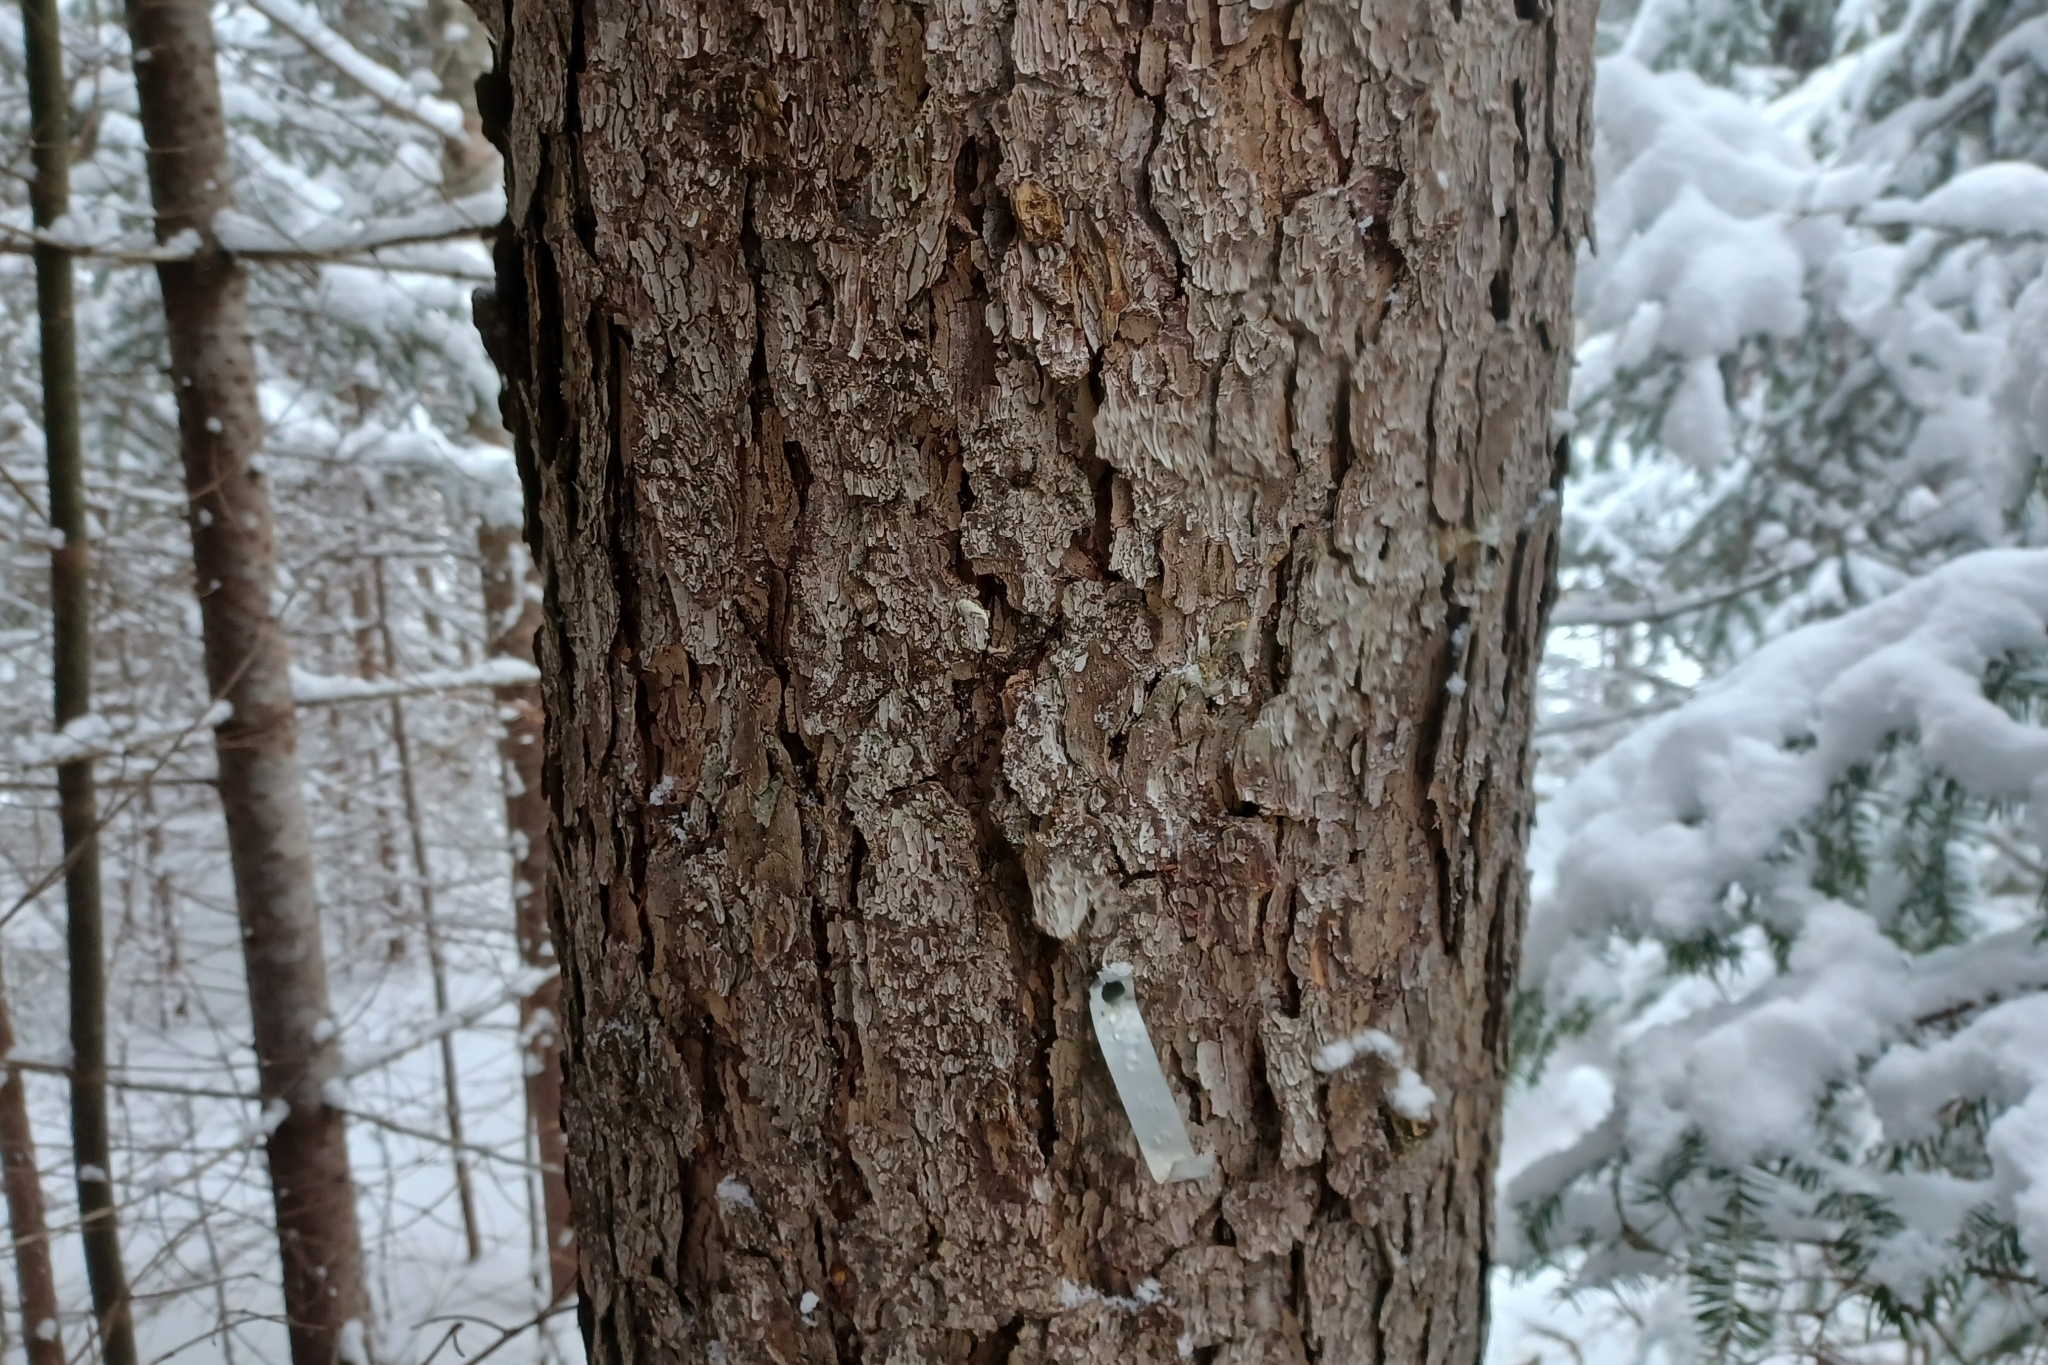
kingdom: Plantae
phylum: Tracheophyta
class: Pinopsida
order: Pinales
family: Pinaceae
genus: Picea
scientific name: Picea rubens
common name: Red spruce
